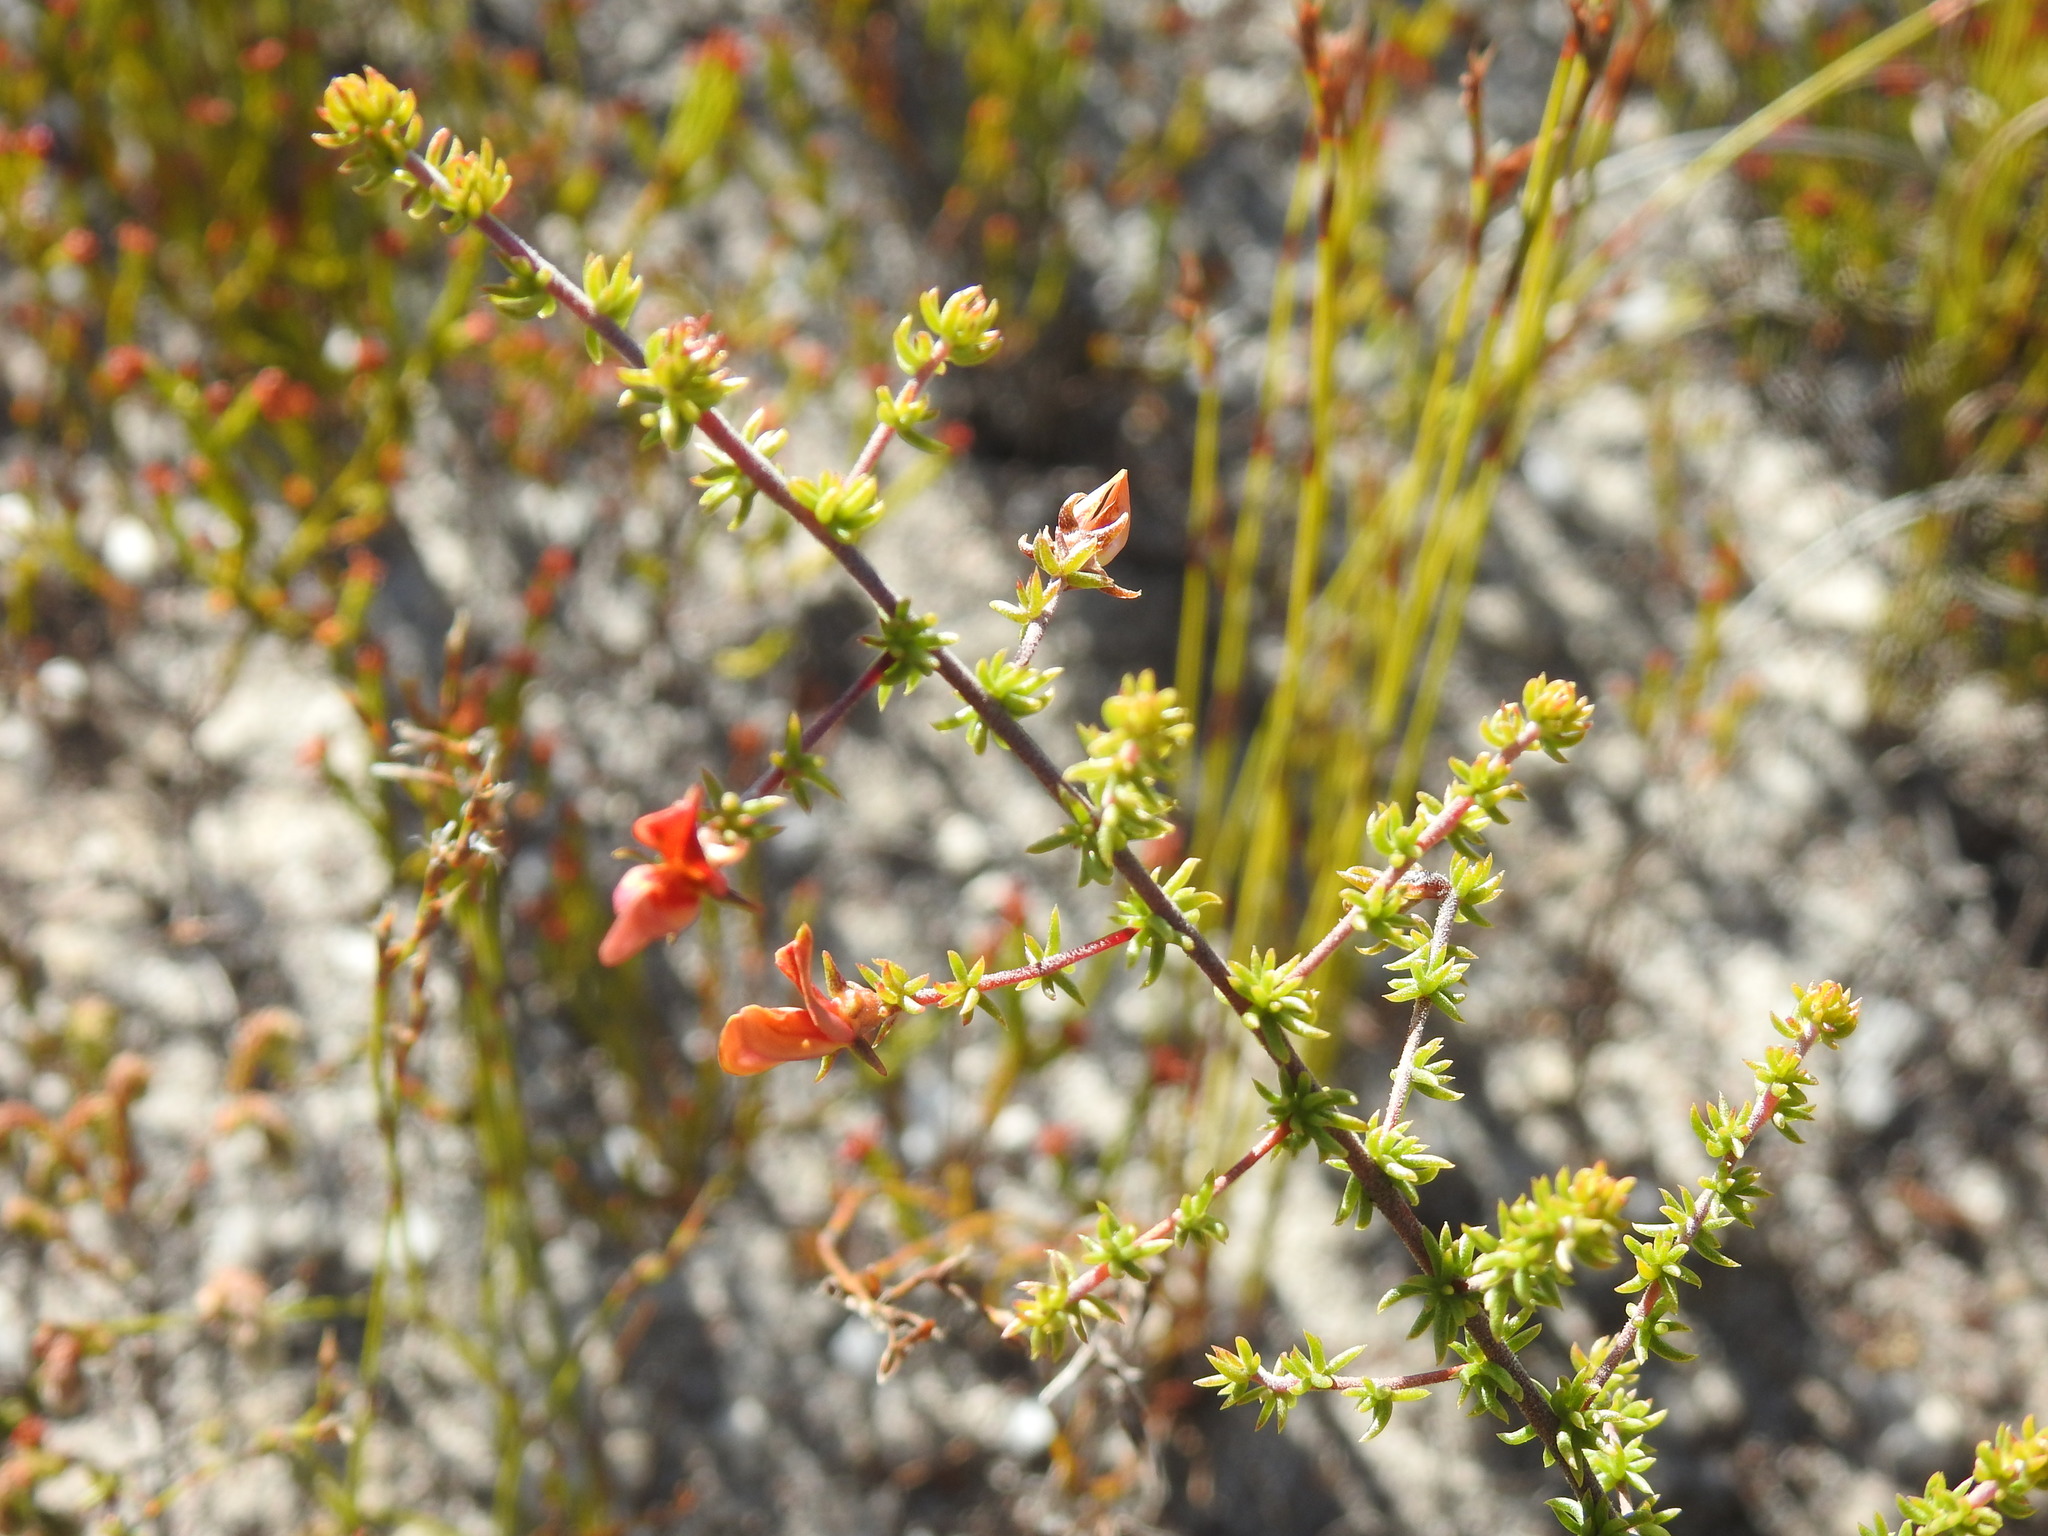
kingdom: Plantae
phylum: Tracheophyta
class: Magnoliopsida
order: Fabales
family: Fabaceae
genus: Aspalathus
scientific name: Aspalathus retroflexa
